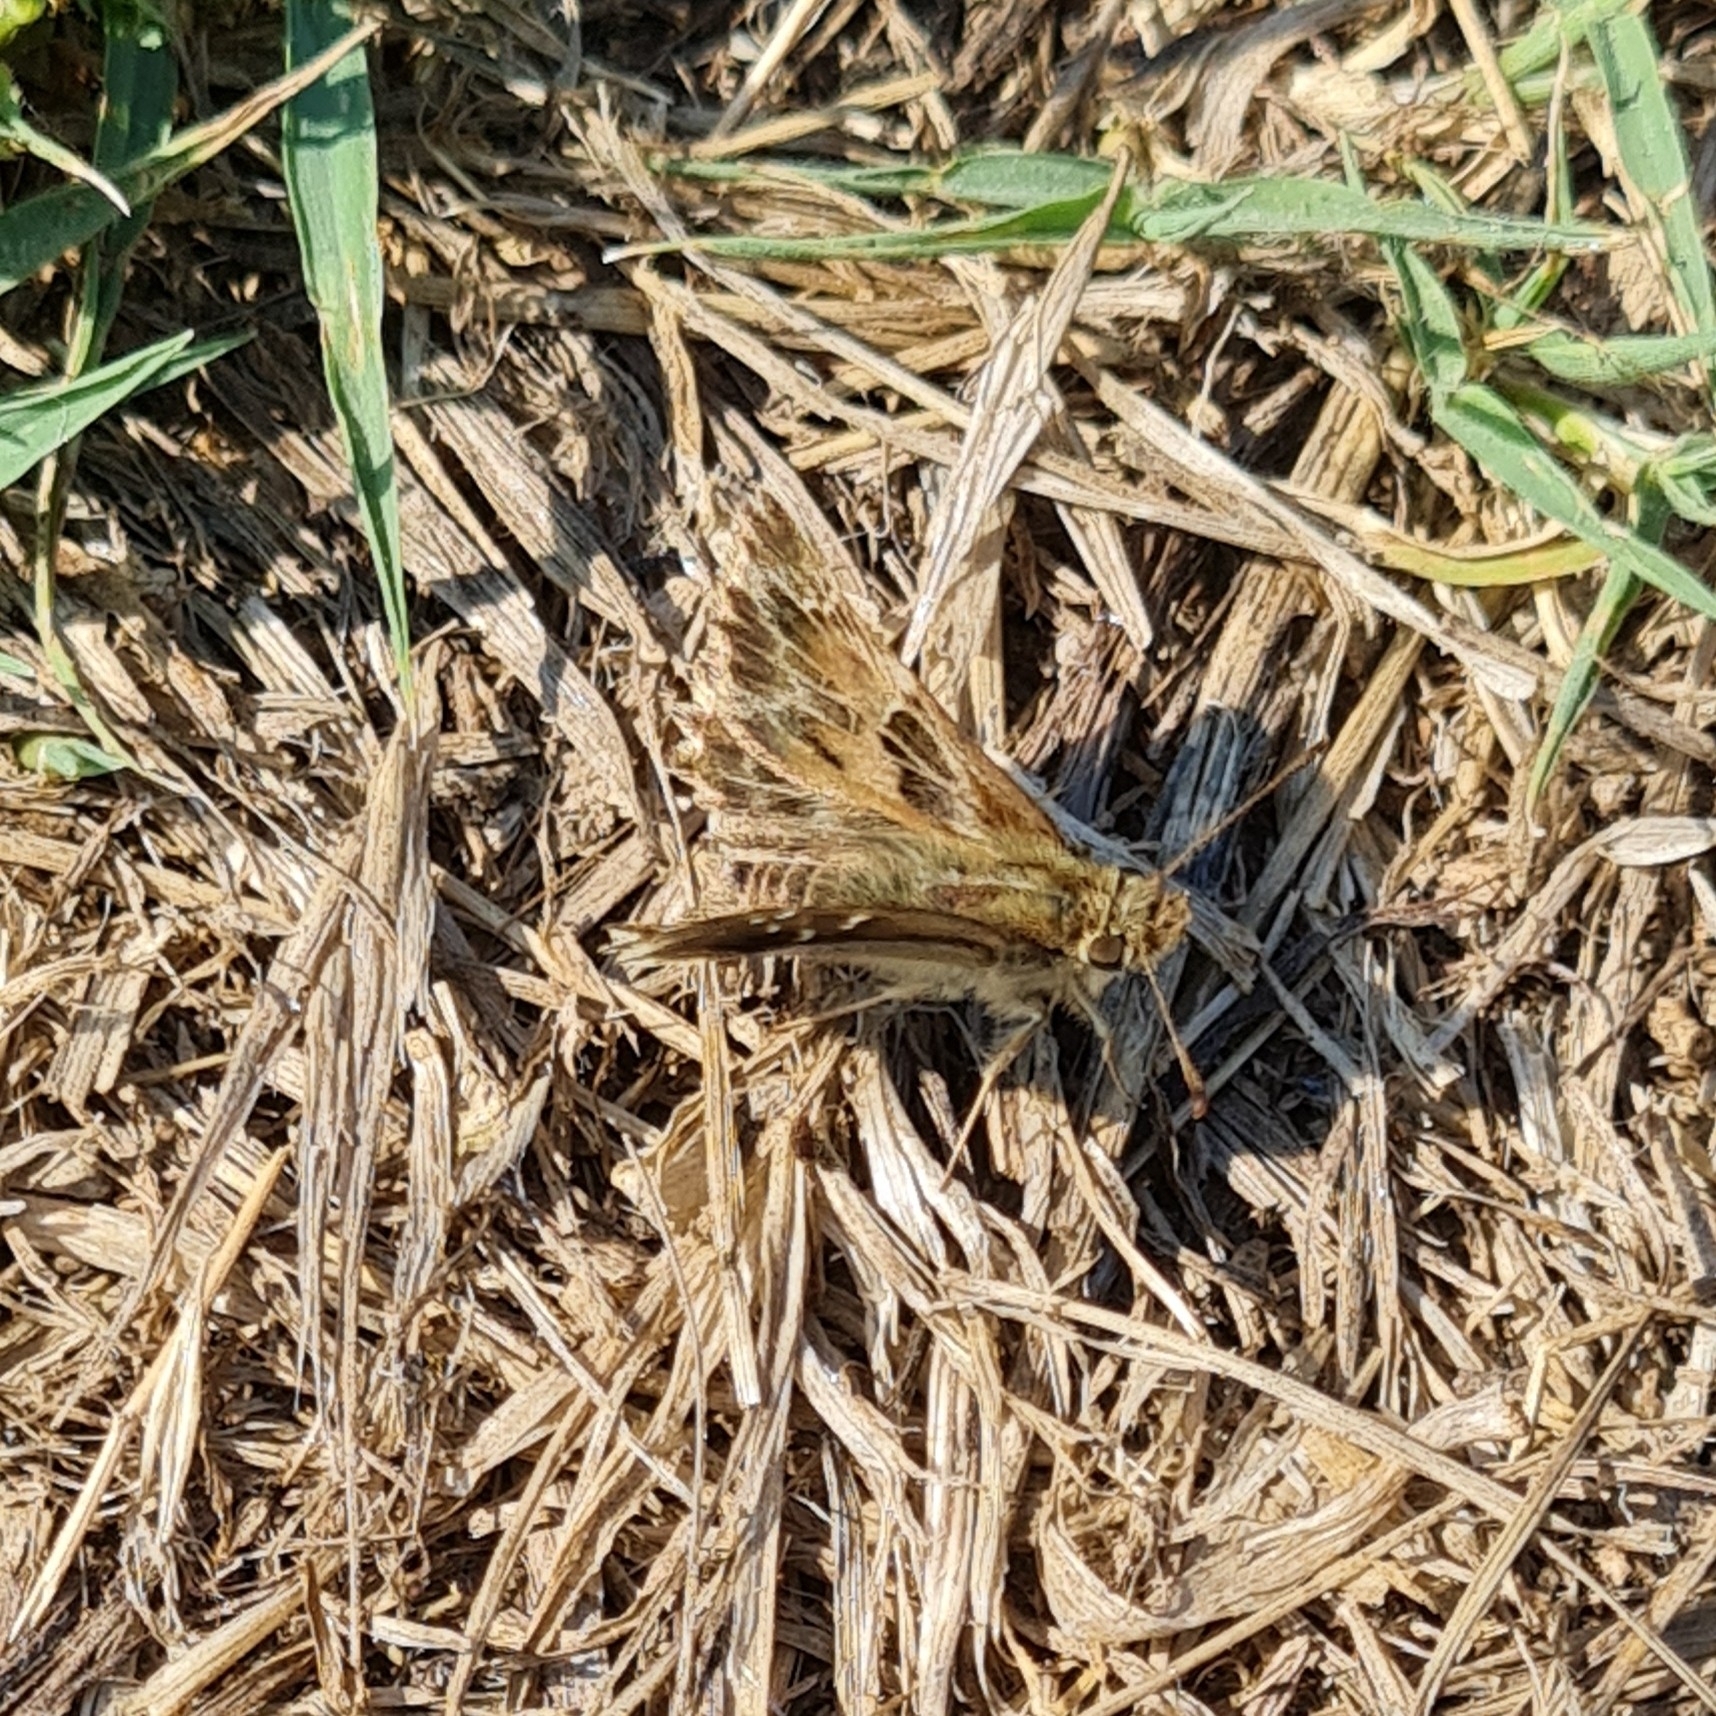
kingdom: Animalia
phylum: Arthropoda
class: Insecta
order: Lepidoptera
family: Hesperiidae
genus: Carcharodus
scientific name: Carcharodus alceae
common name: Mallow skipper
